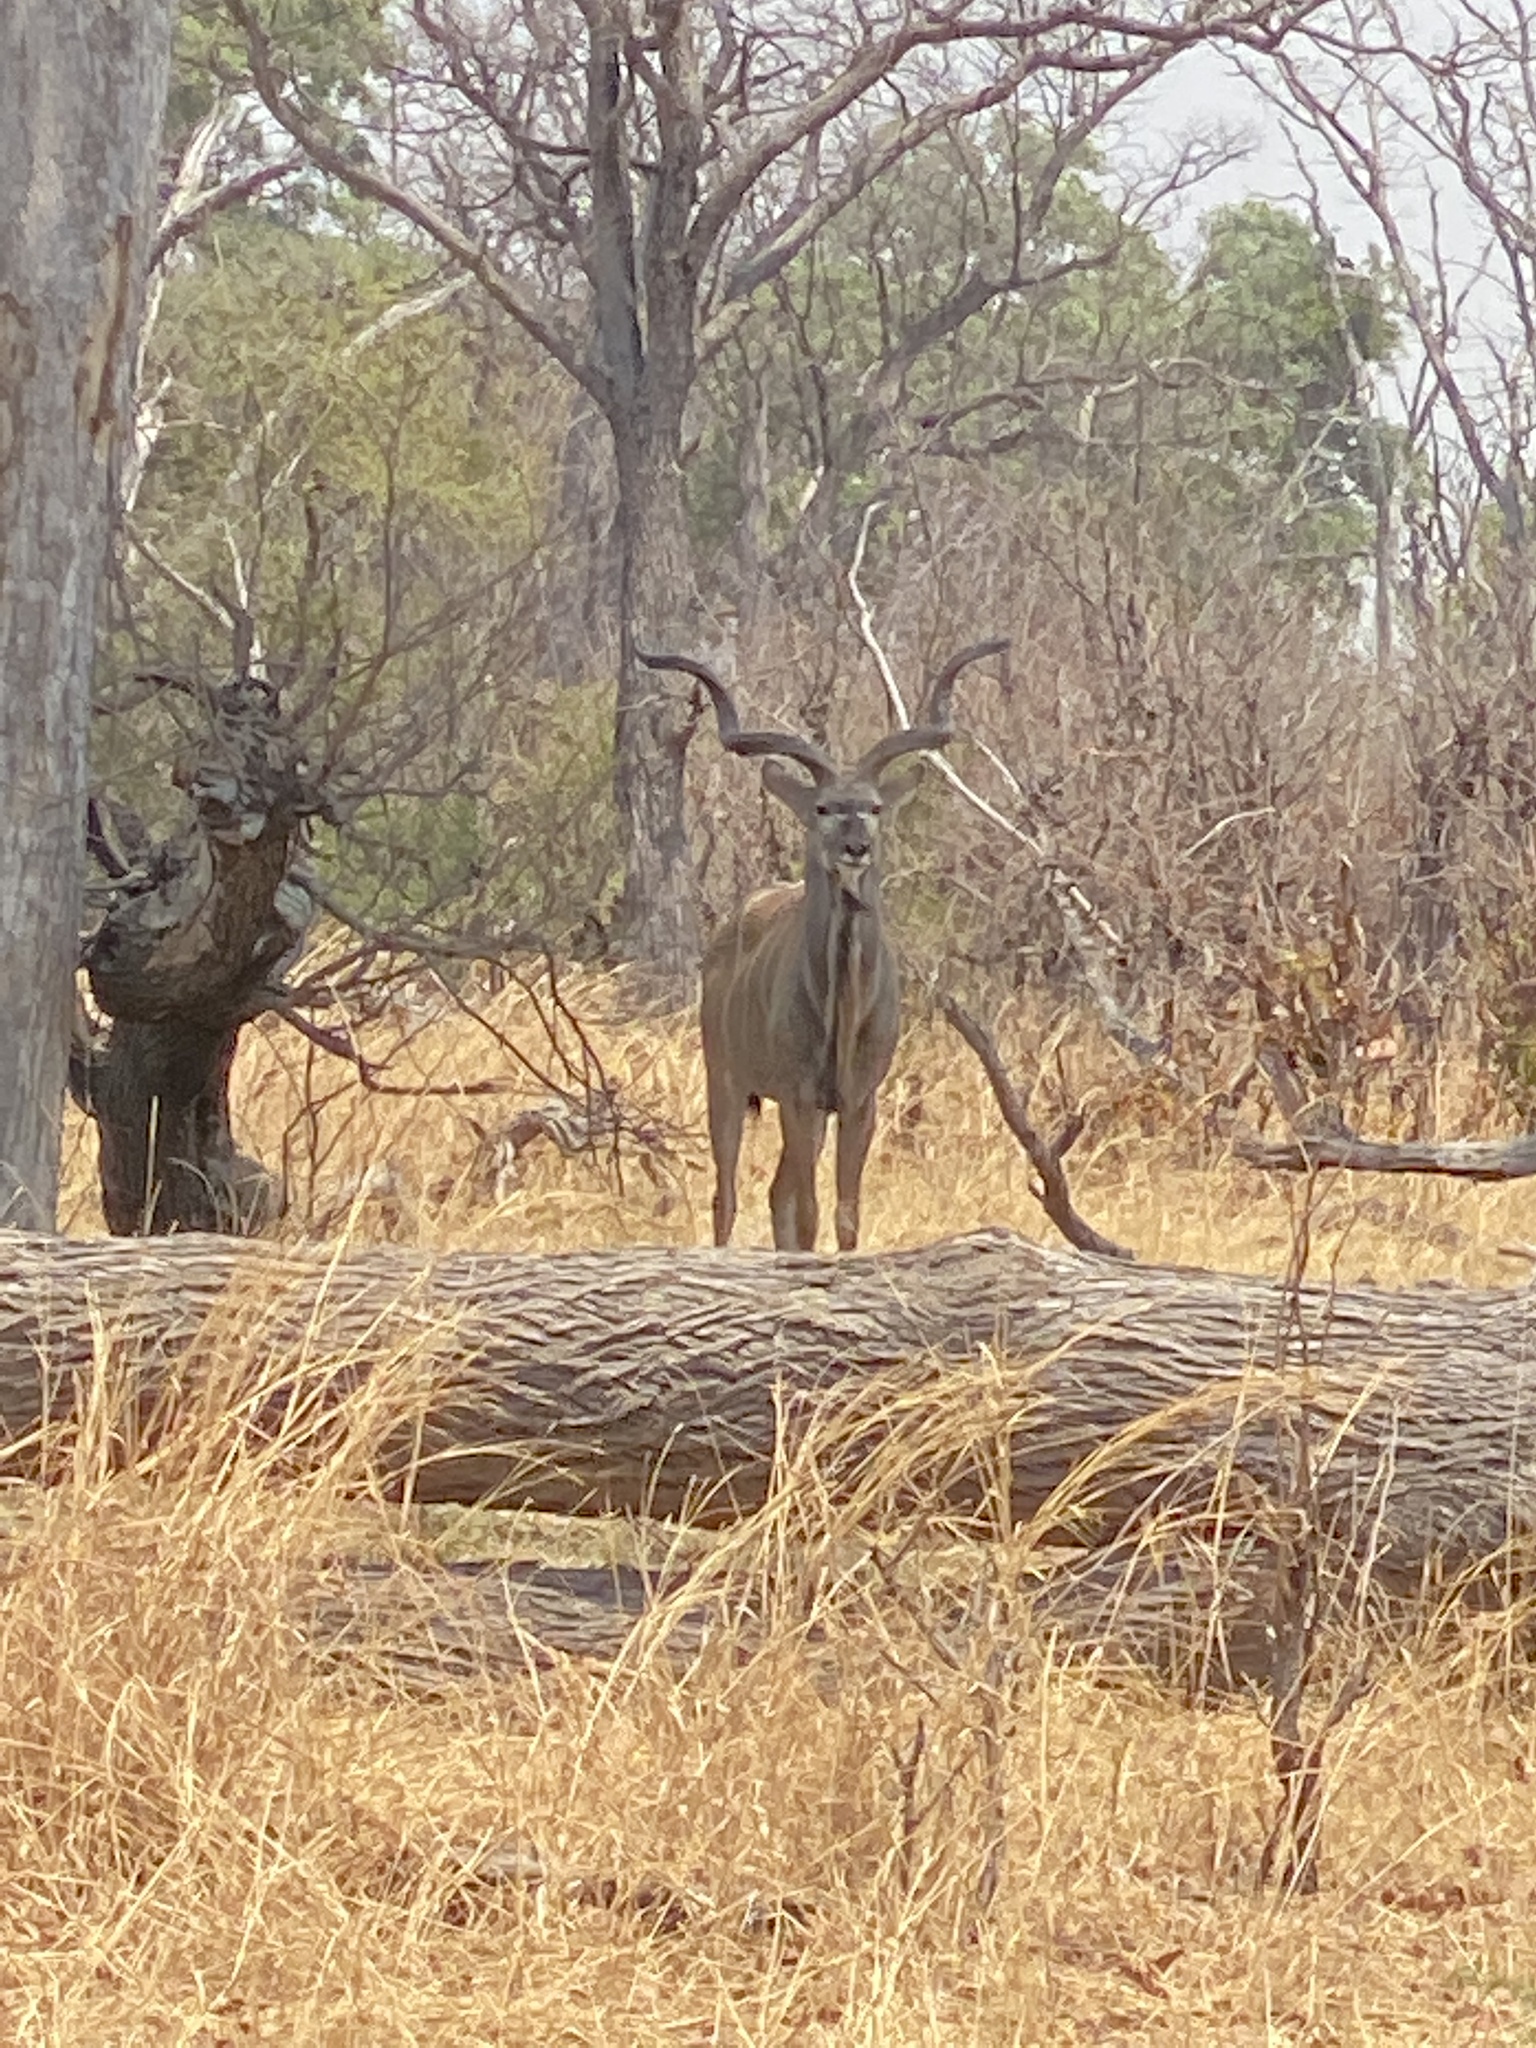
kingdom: Animalia
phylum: Chordata
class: Mammalia
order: Artiodactyla
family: Bovidae
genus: Tragelaphus
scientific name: Tragelaphus strepsiceros
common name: Greater kudu
